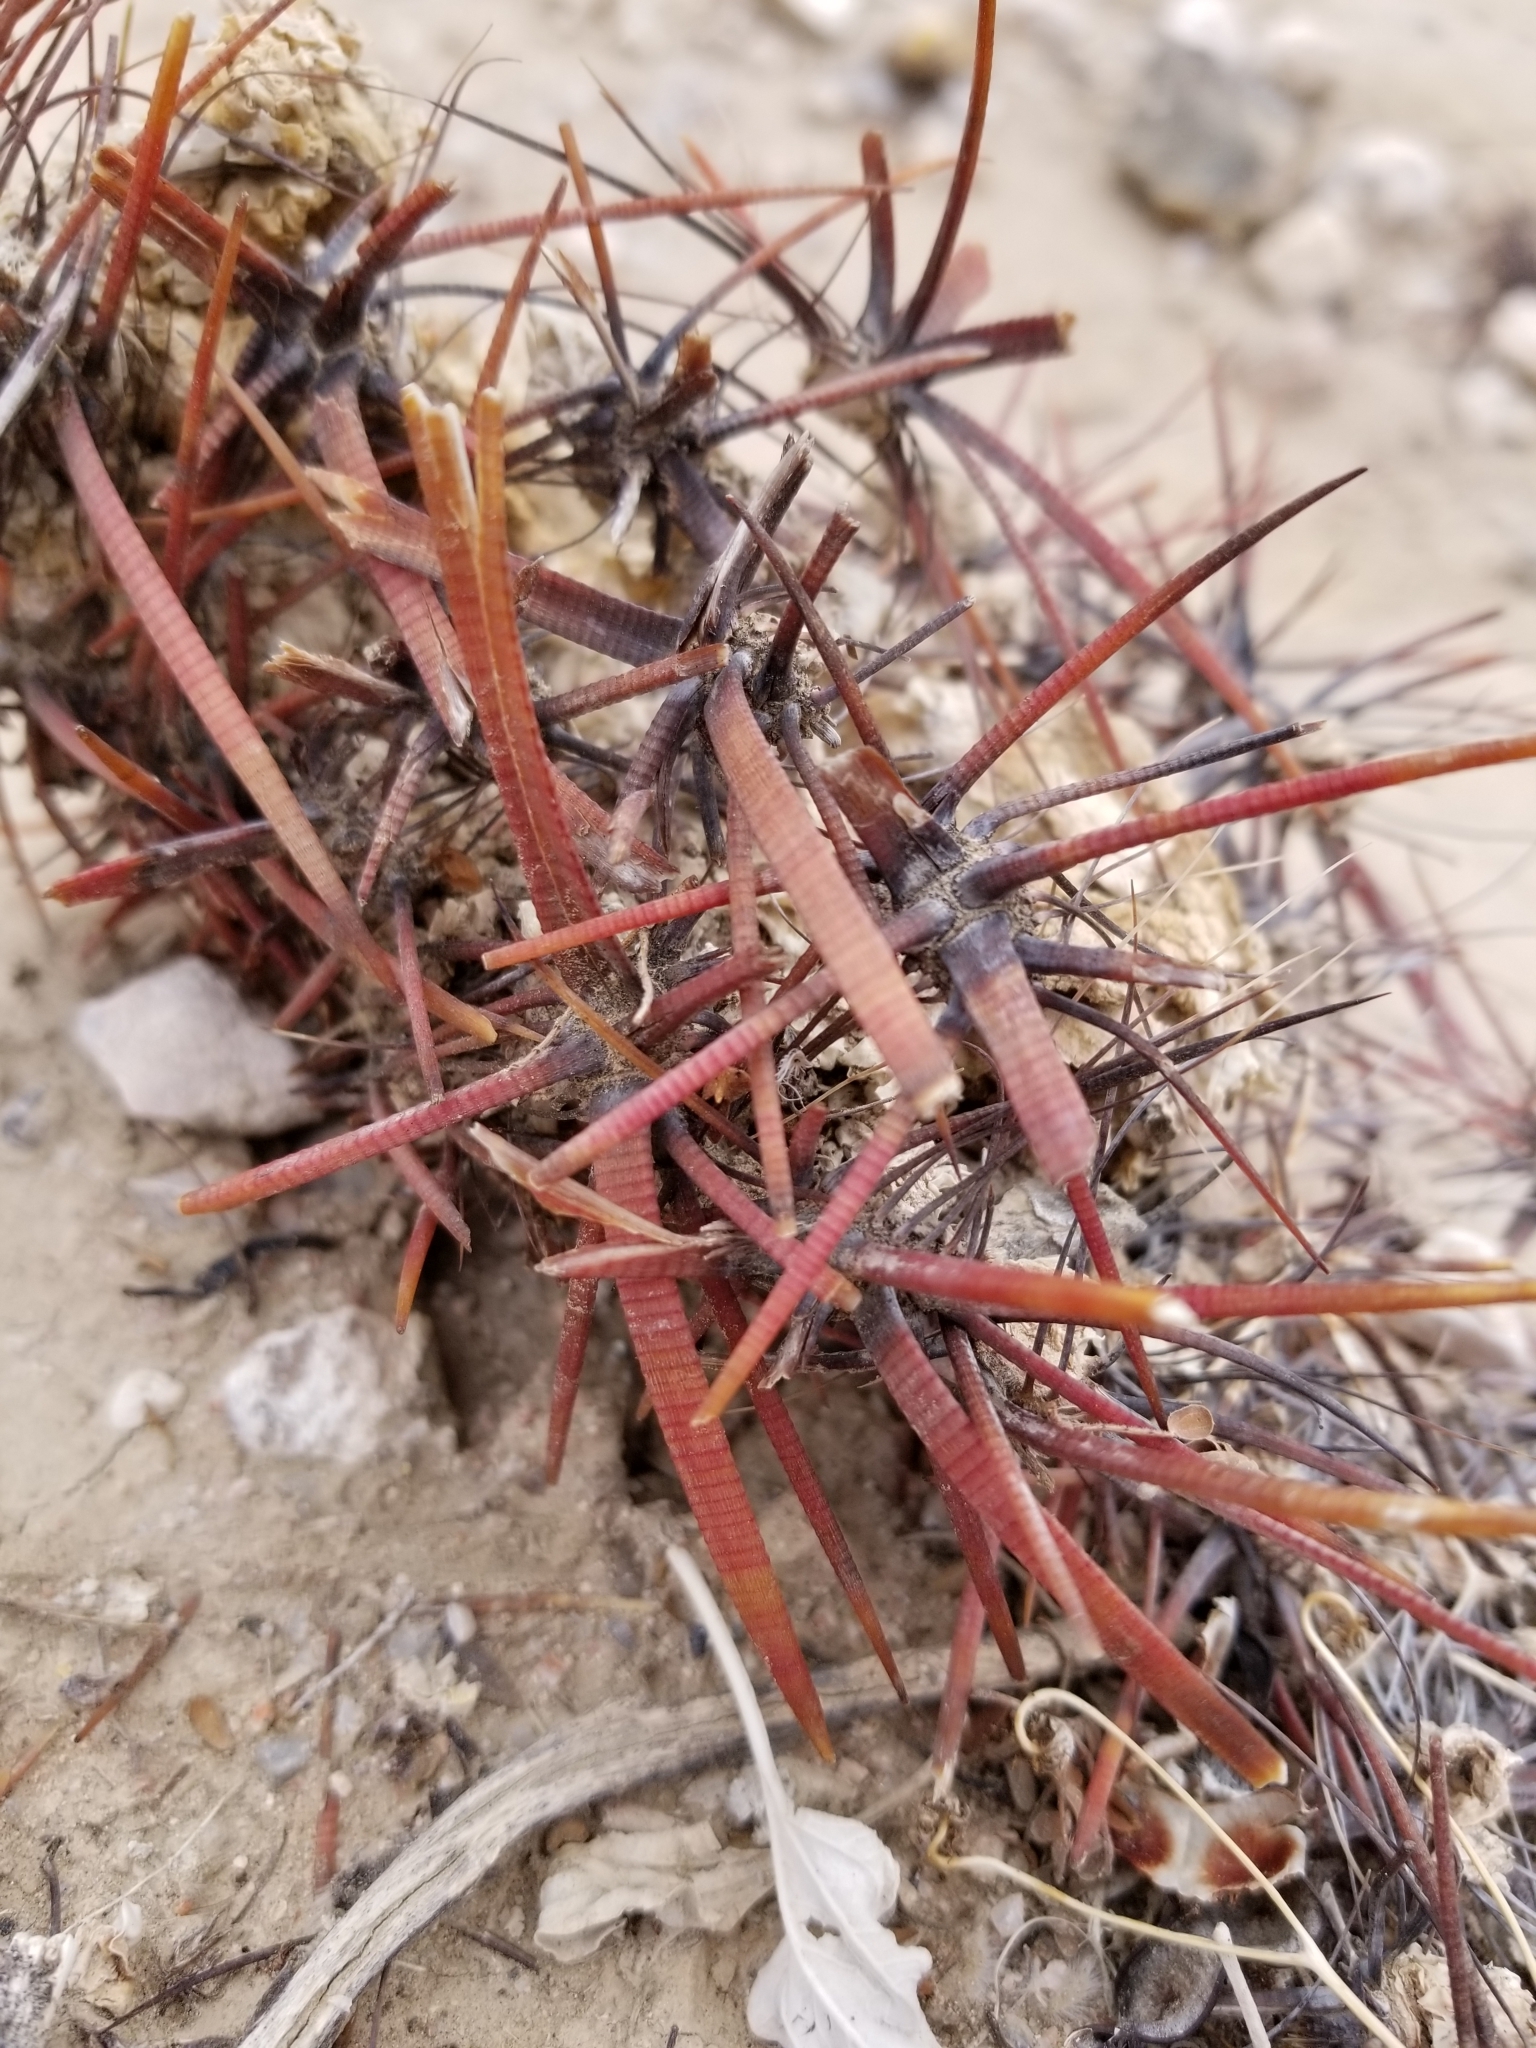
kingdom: Plantae
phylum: Tracheophyta
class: Magnoliopsida
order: Caryophyllales
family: Cactaceae
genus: Ferocactus
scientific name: Ferocactus cylindraceus
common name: California barrel cactus
